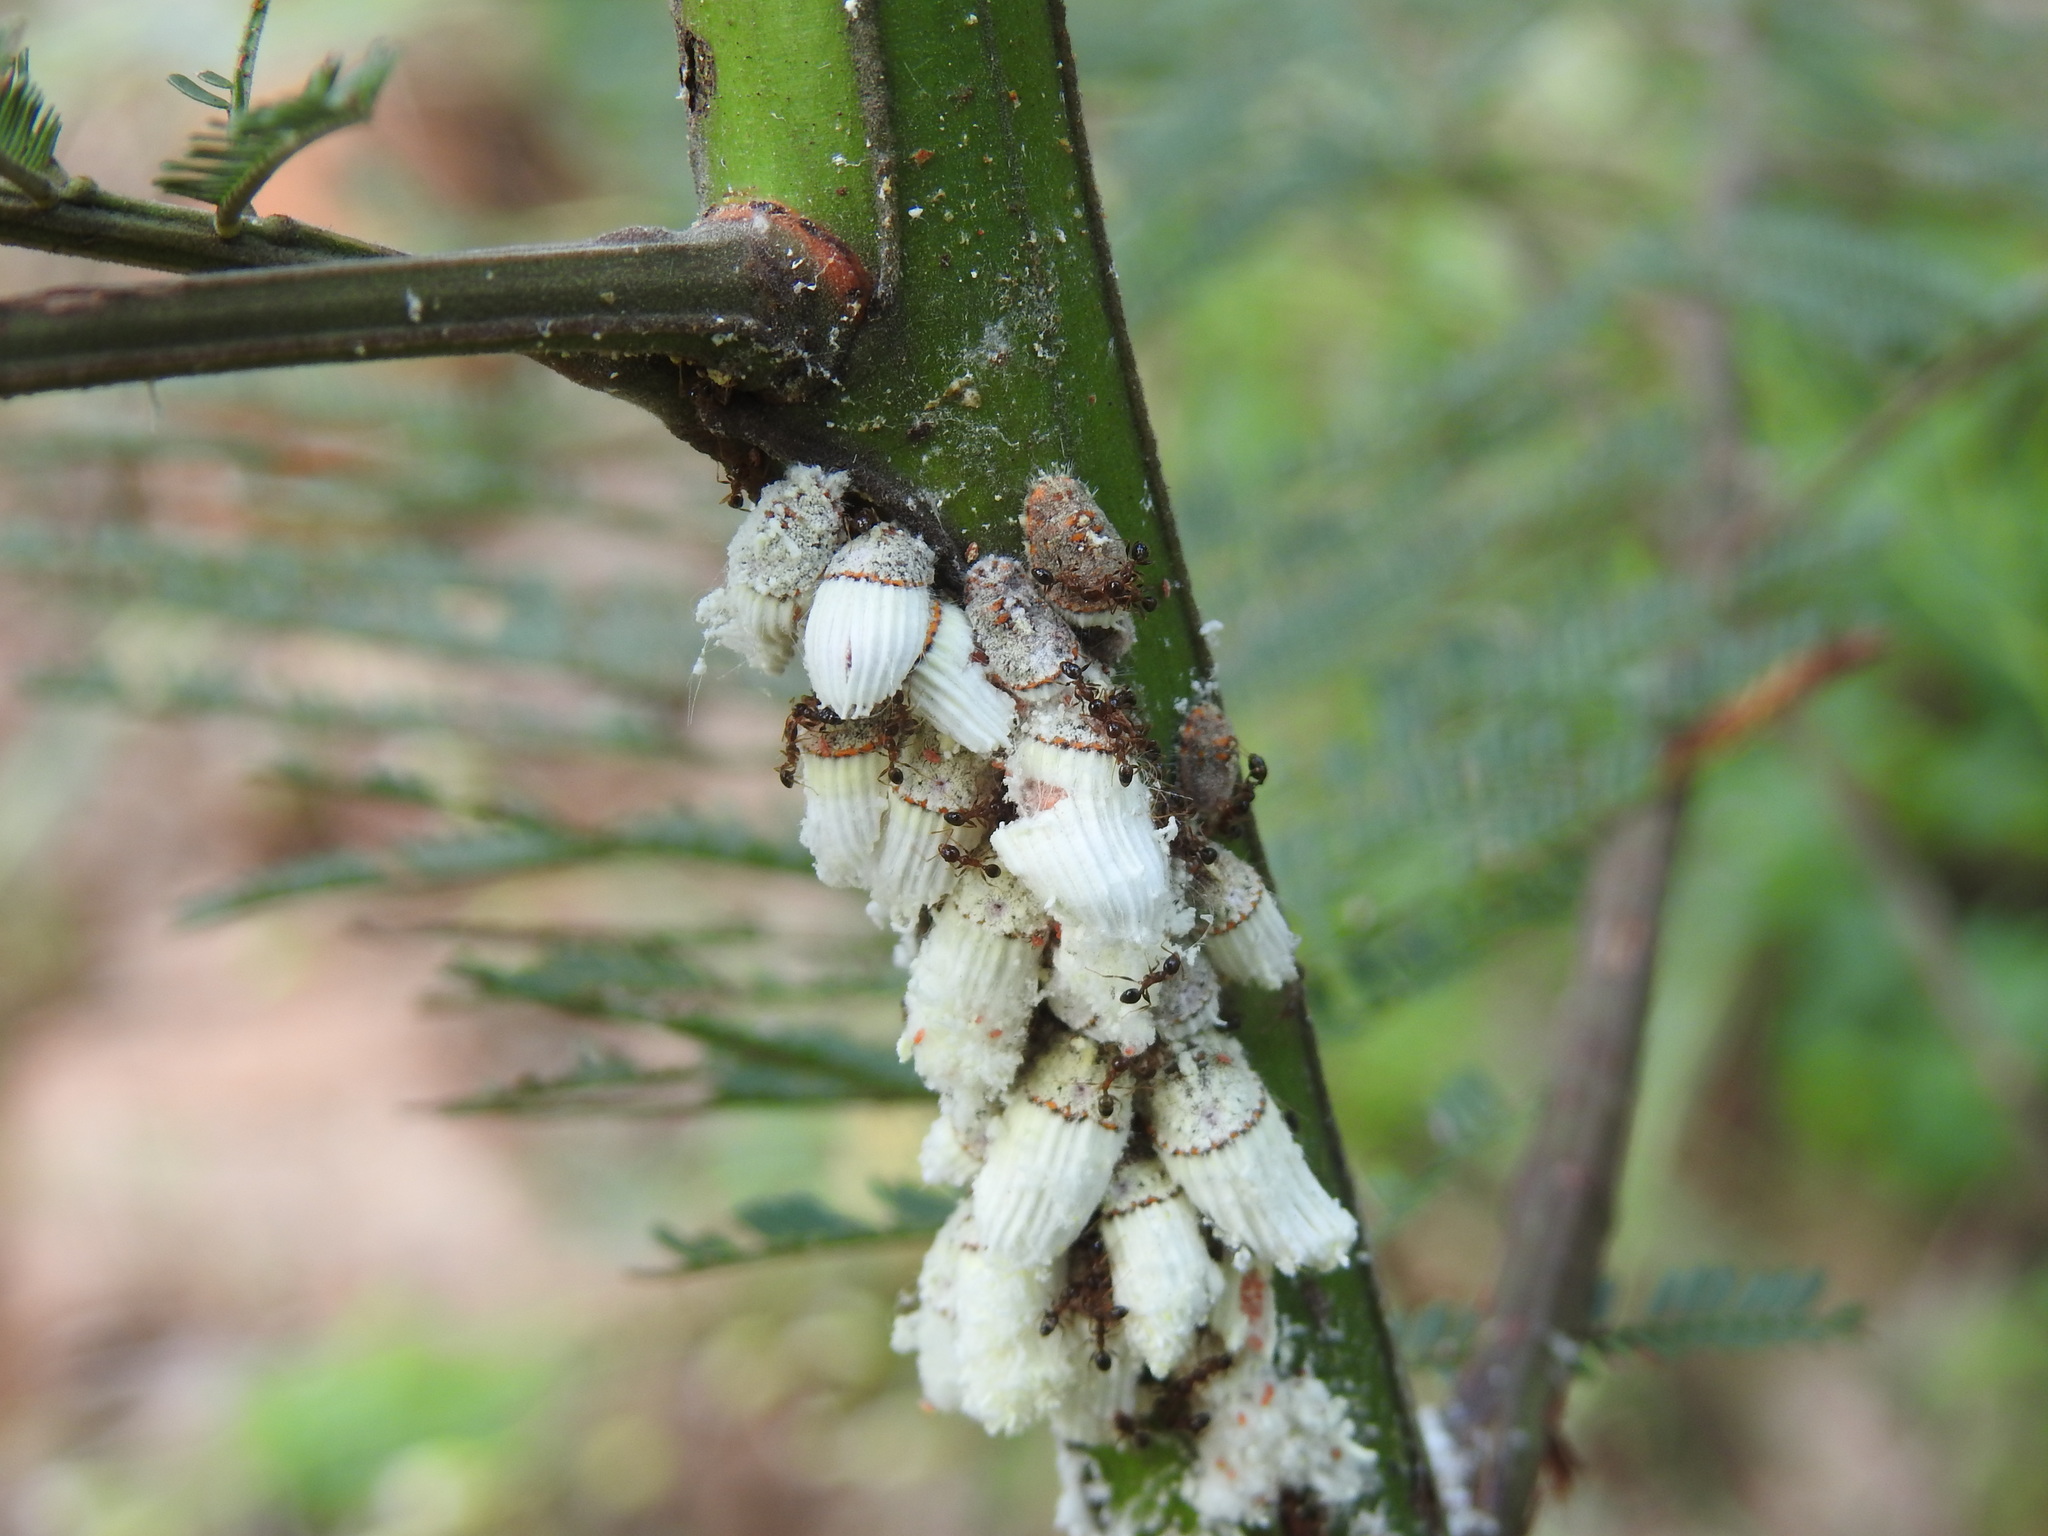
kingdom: Animalia
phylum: Arthropoda
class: Insecta
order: Hemiptera
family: Margarodidae
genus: Icerya
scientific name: Icerya purchasi
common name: Cottony cushion scale
